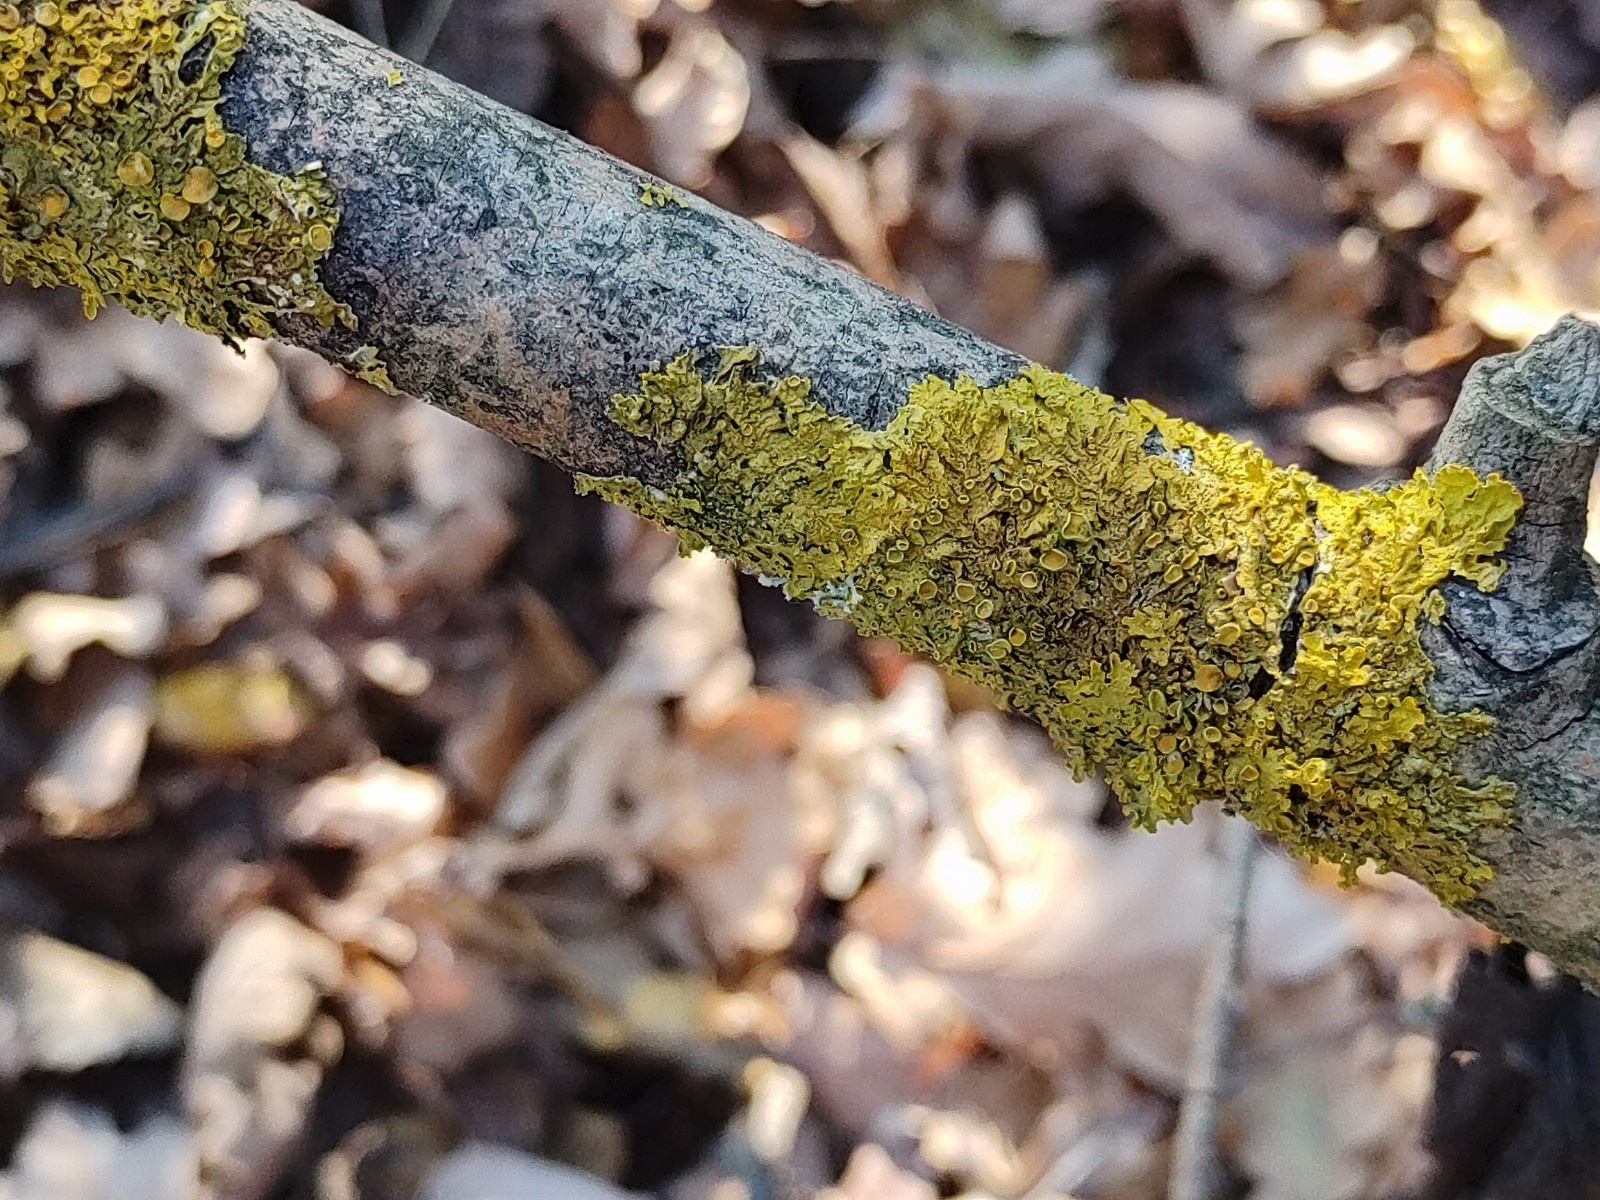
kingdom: Fungi
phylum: Ascomycota
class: Lecanoromycetes
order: Teloschistales
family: Teloschistaceae
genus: Xanthoria
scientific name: Xanthoria parietina
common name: Common orange lichen
